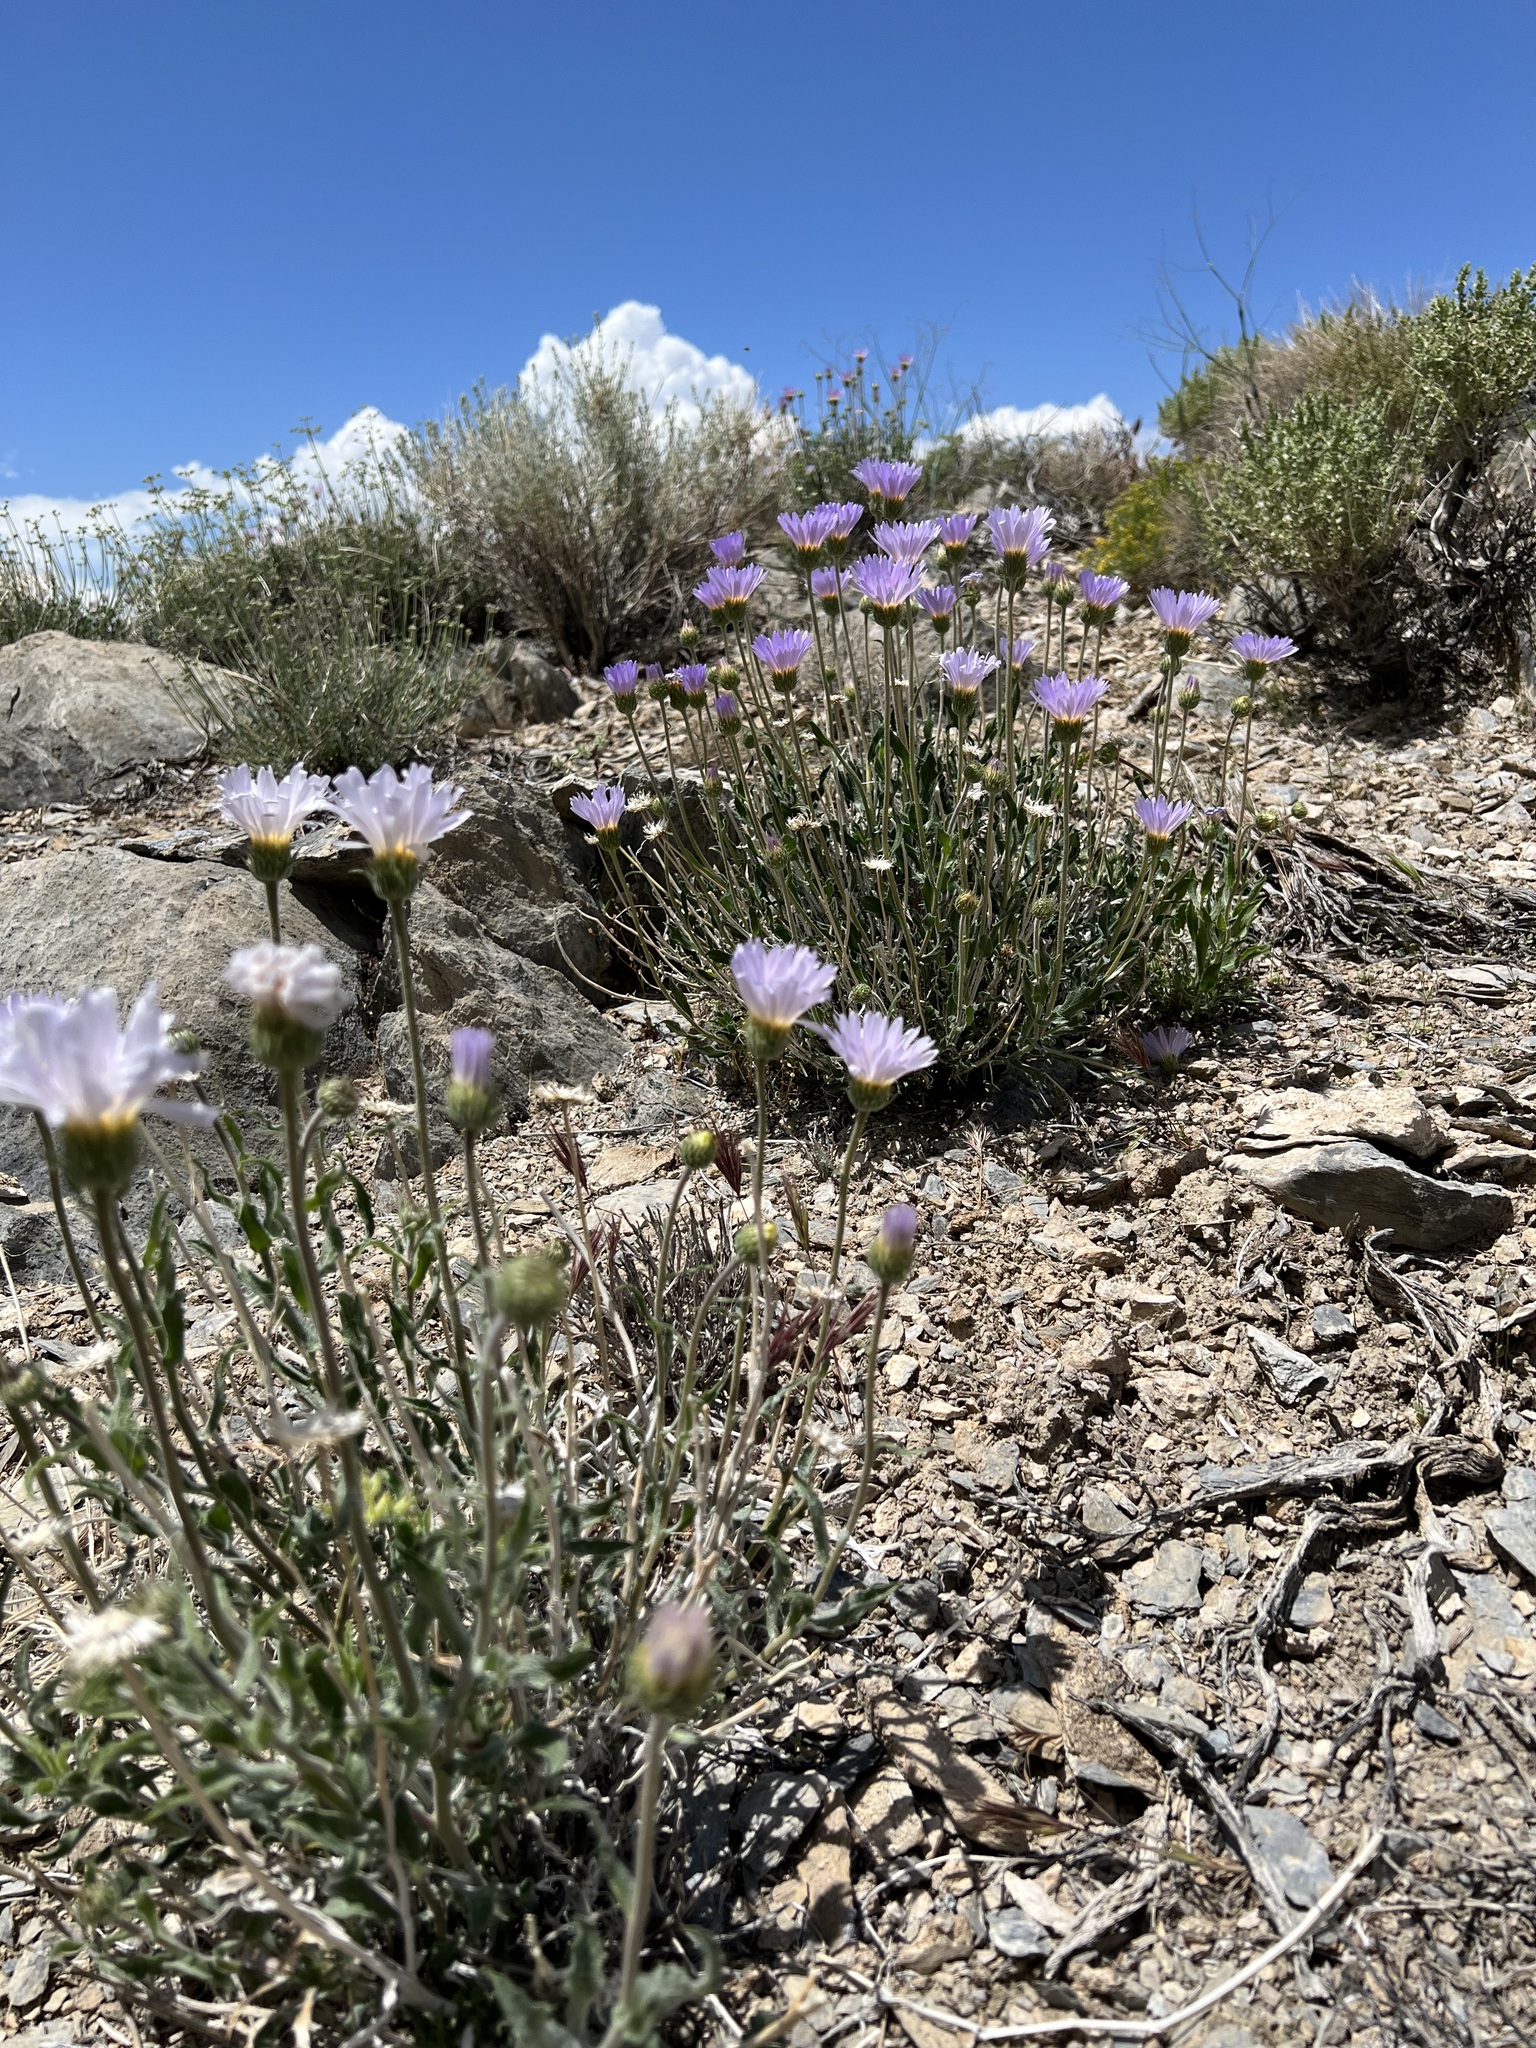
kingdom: Plantae
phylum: Tracheophyta
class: Magnoliopsida
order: Asterales
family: Asteraceae
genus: Xylorhiza
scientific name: Xylorhiza tortifolia
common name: Hurt-leaf woody-aster
